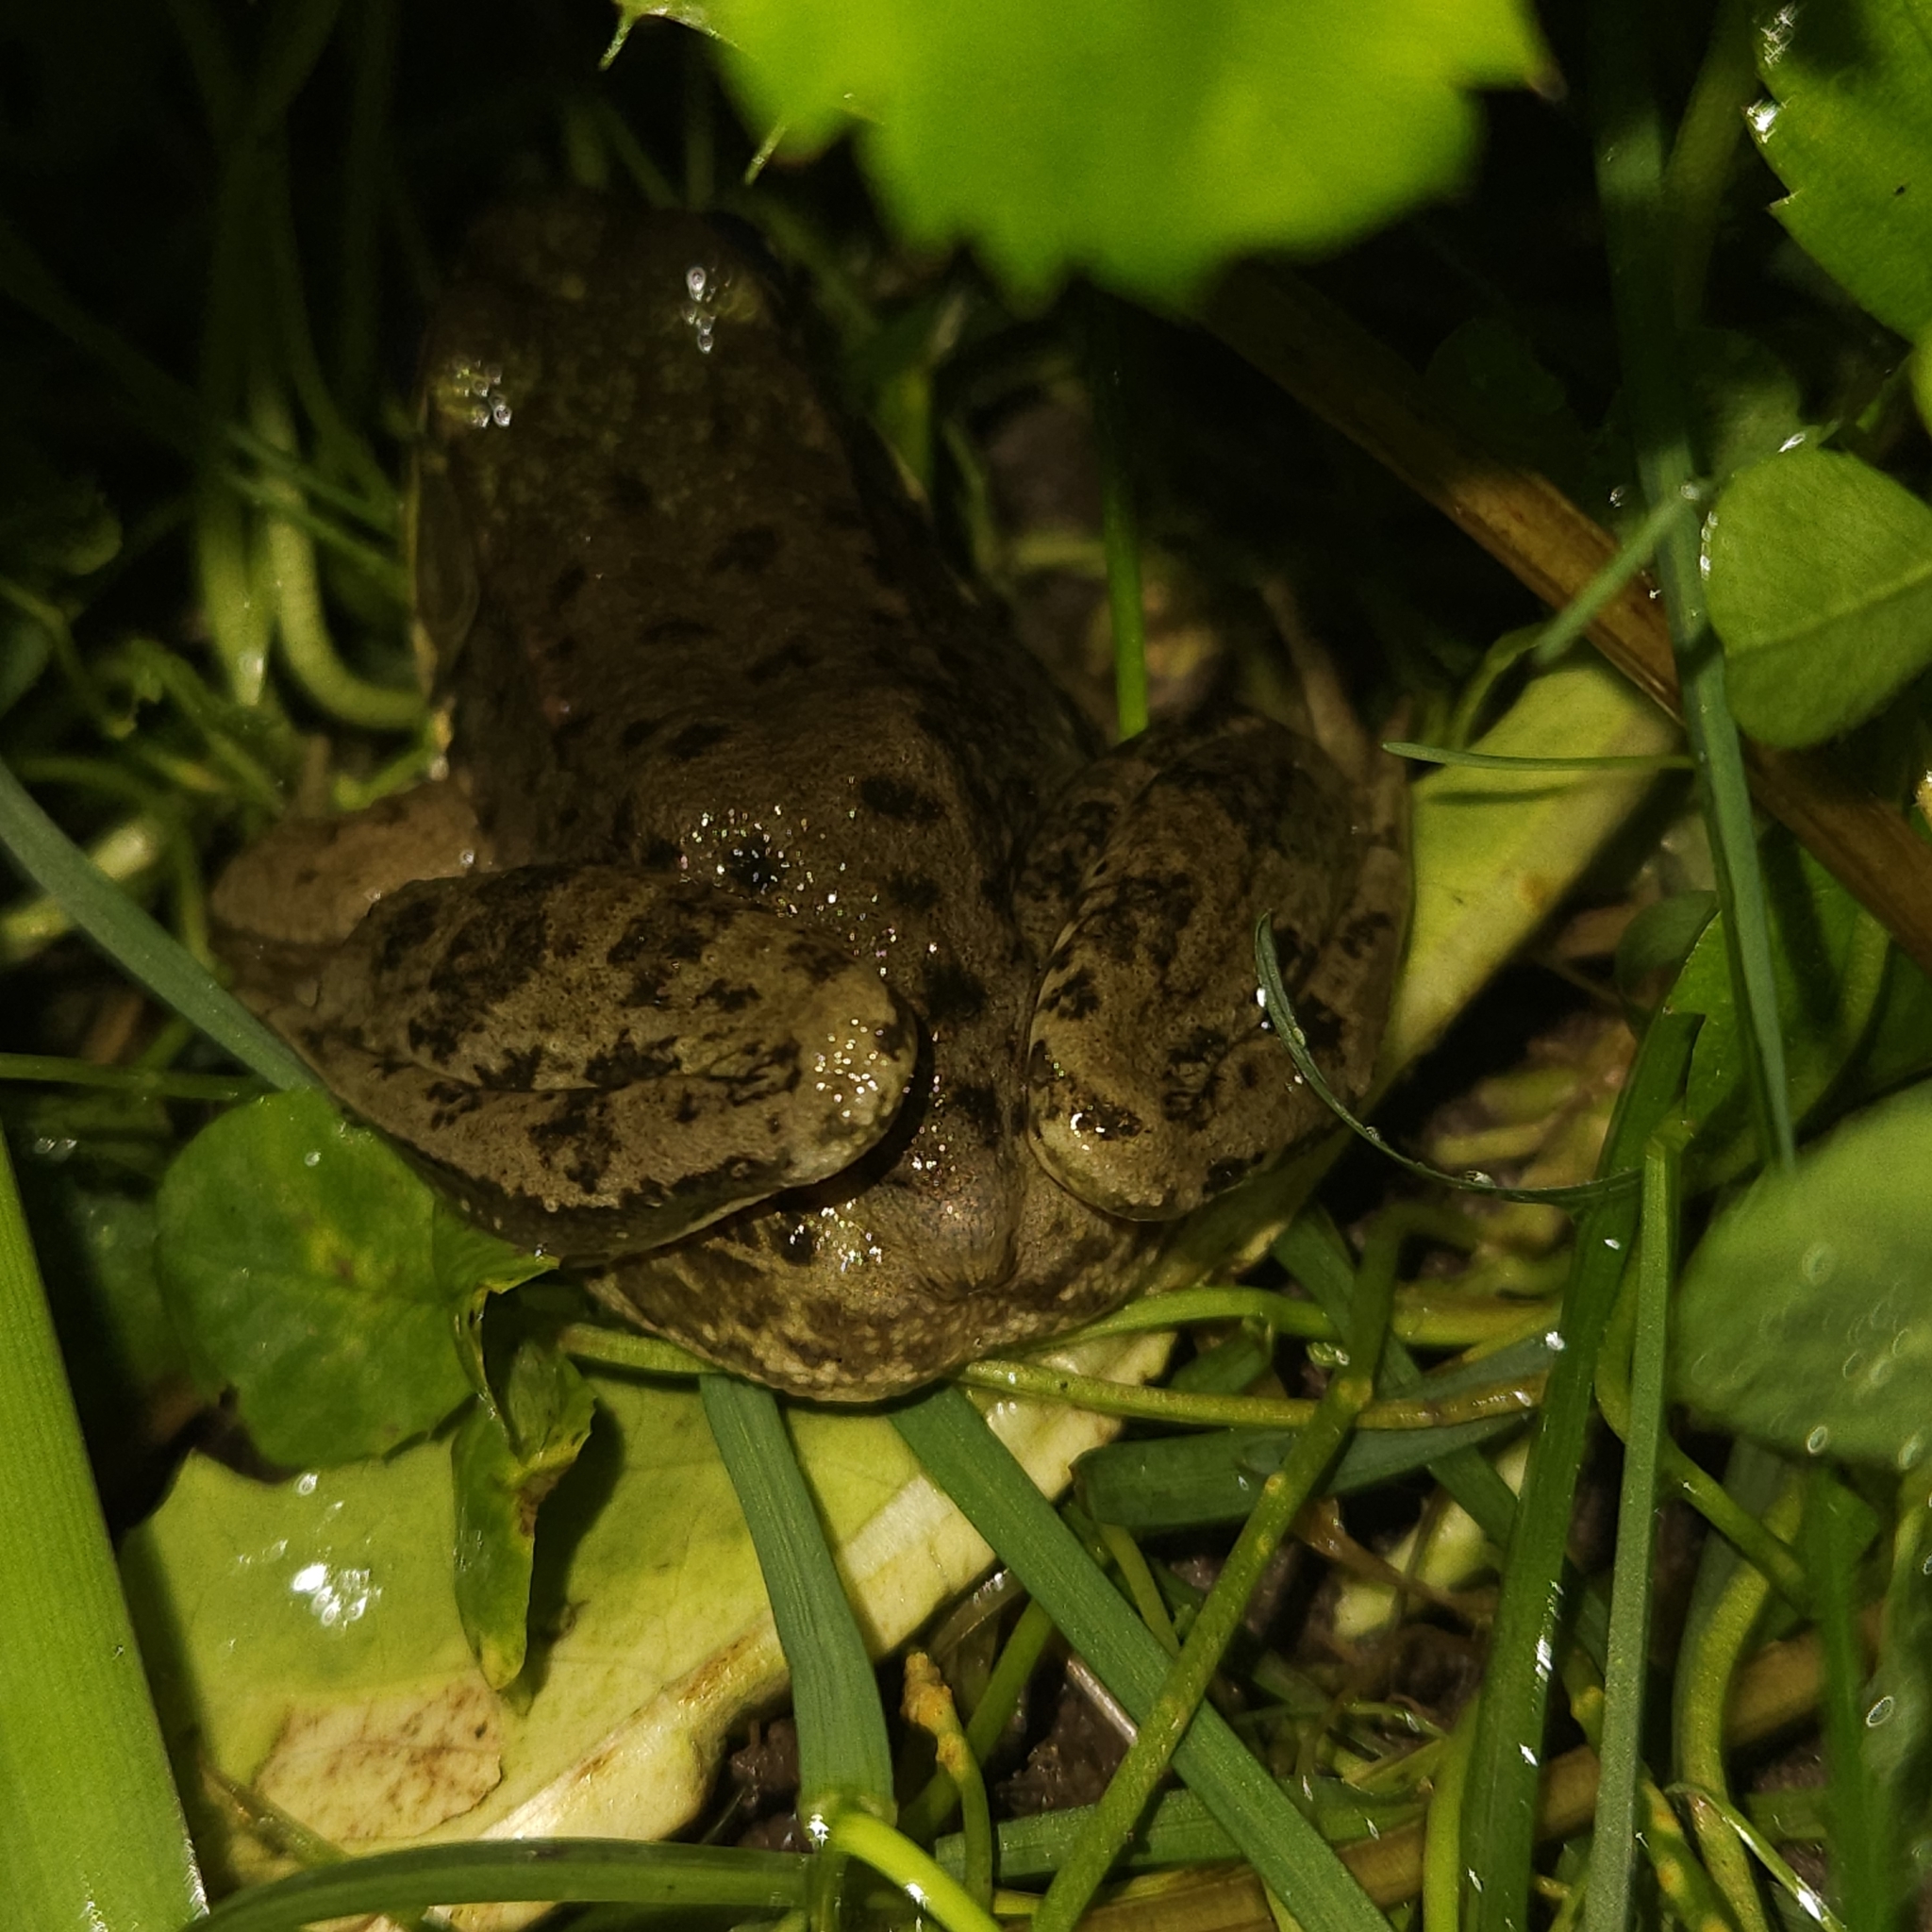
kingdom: Animalia
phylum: Chordata
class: Amphibia
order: Anura
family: Ranidae
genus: Lithobates
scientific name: Lithobates clamitans
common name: Green frog
